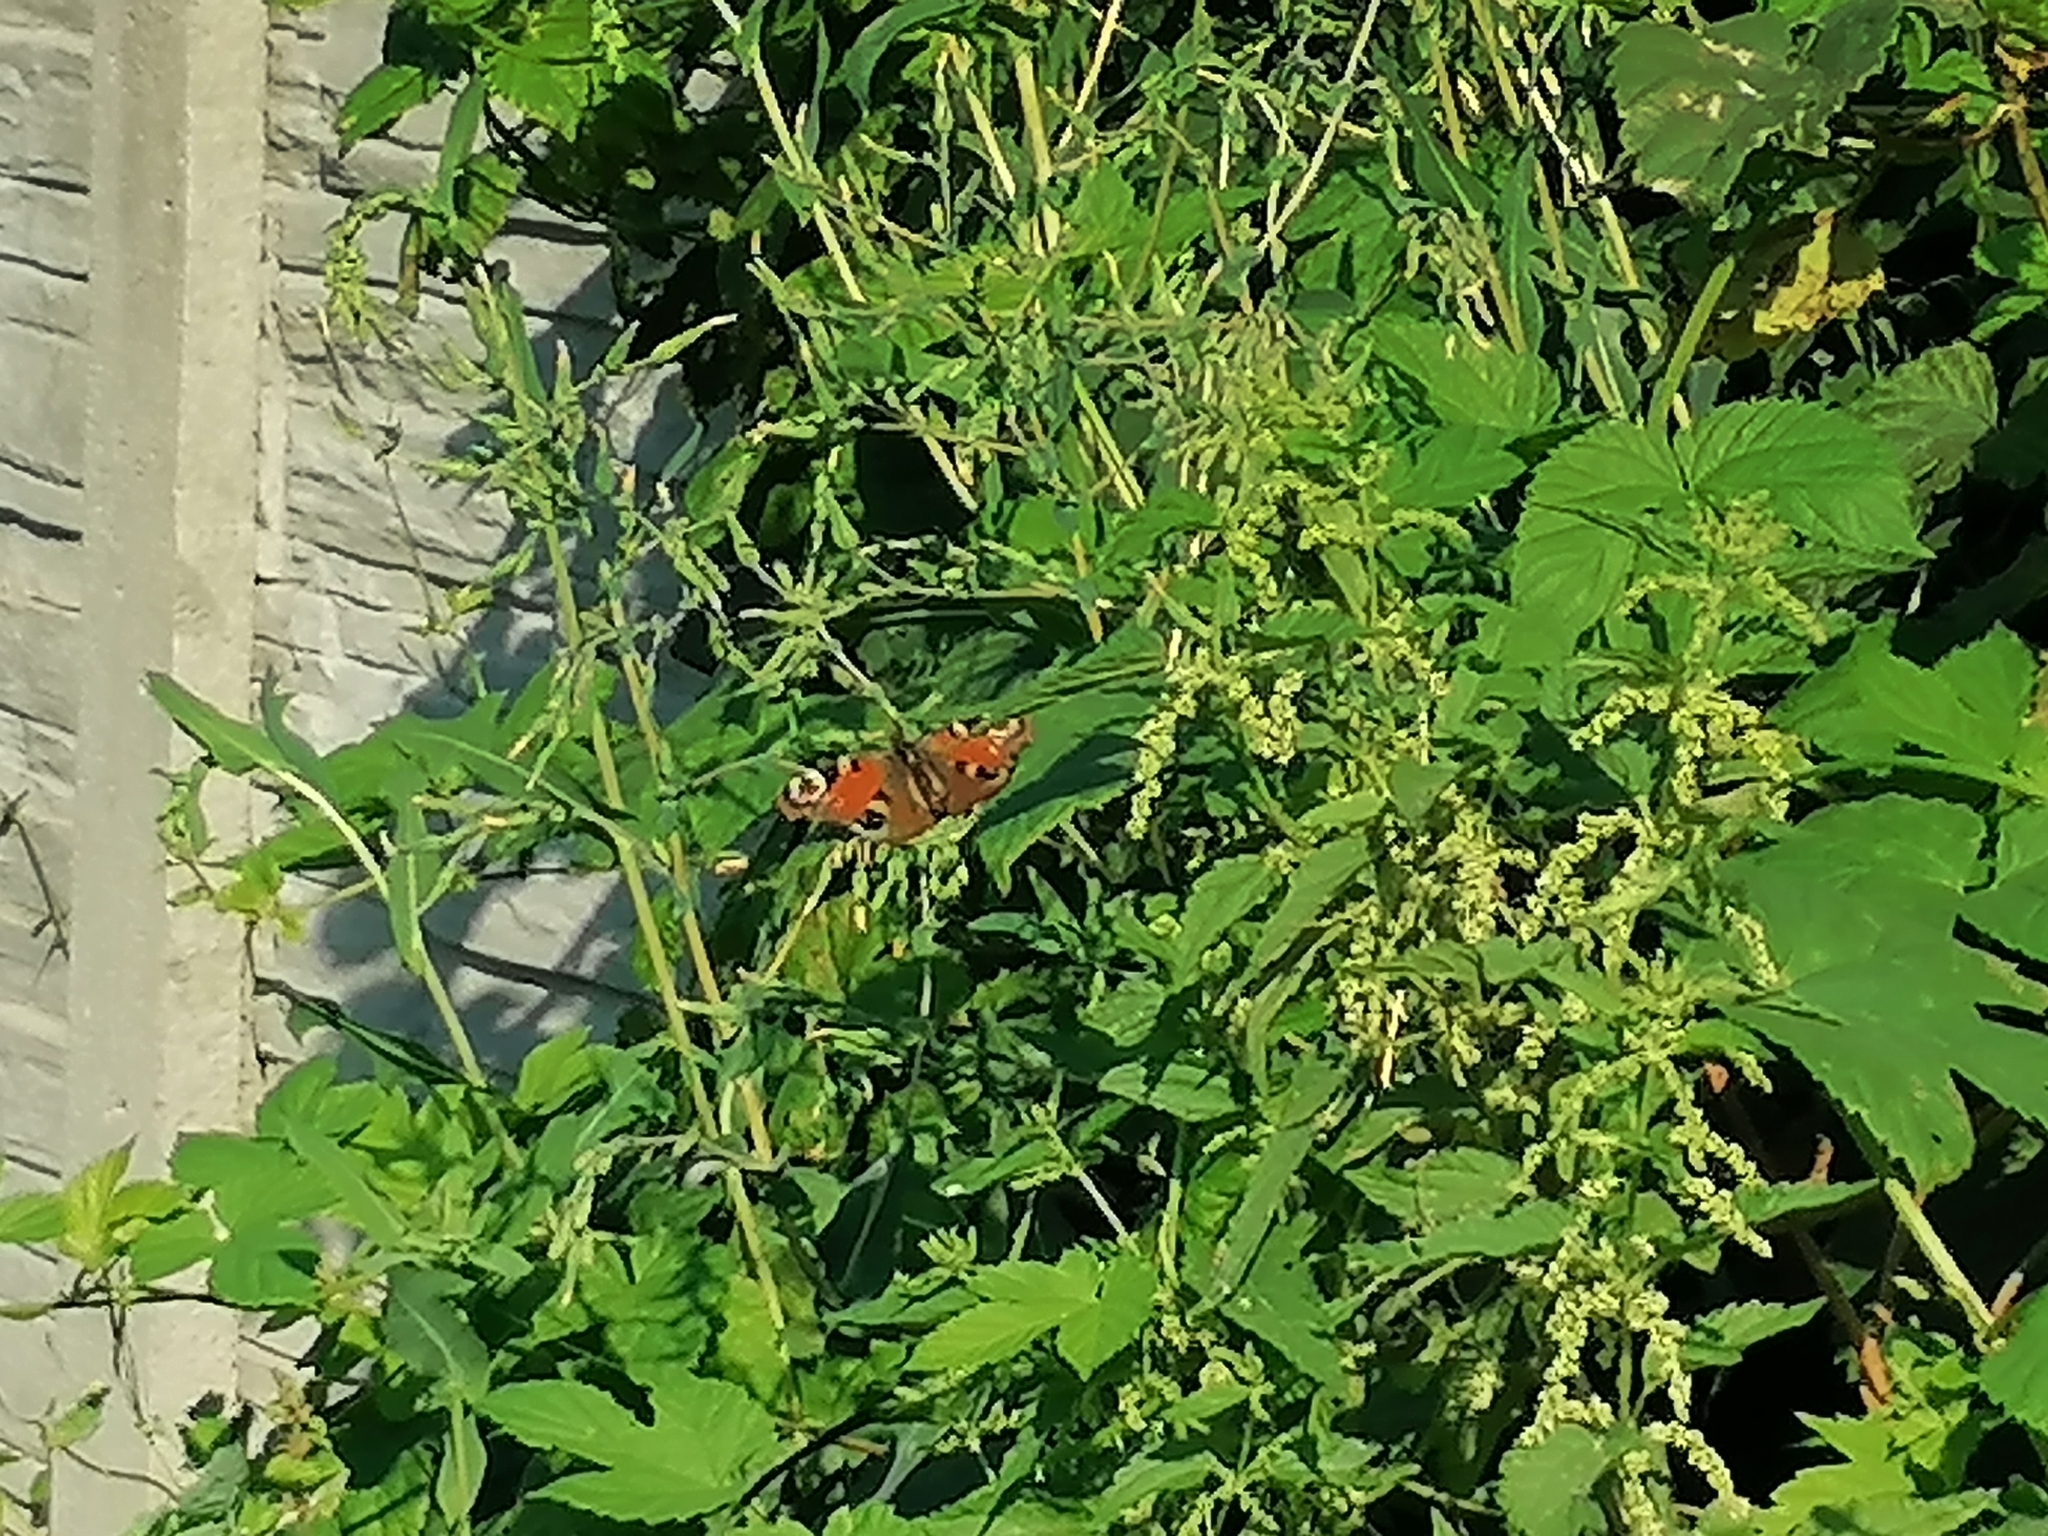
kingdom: Animalia
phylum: Arthropoda
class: Insecta
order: Lepidoptera
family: Nymphalidae
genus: Aglais
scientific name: Aglais io
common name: Peacock
